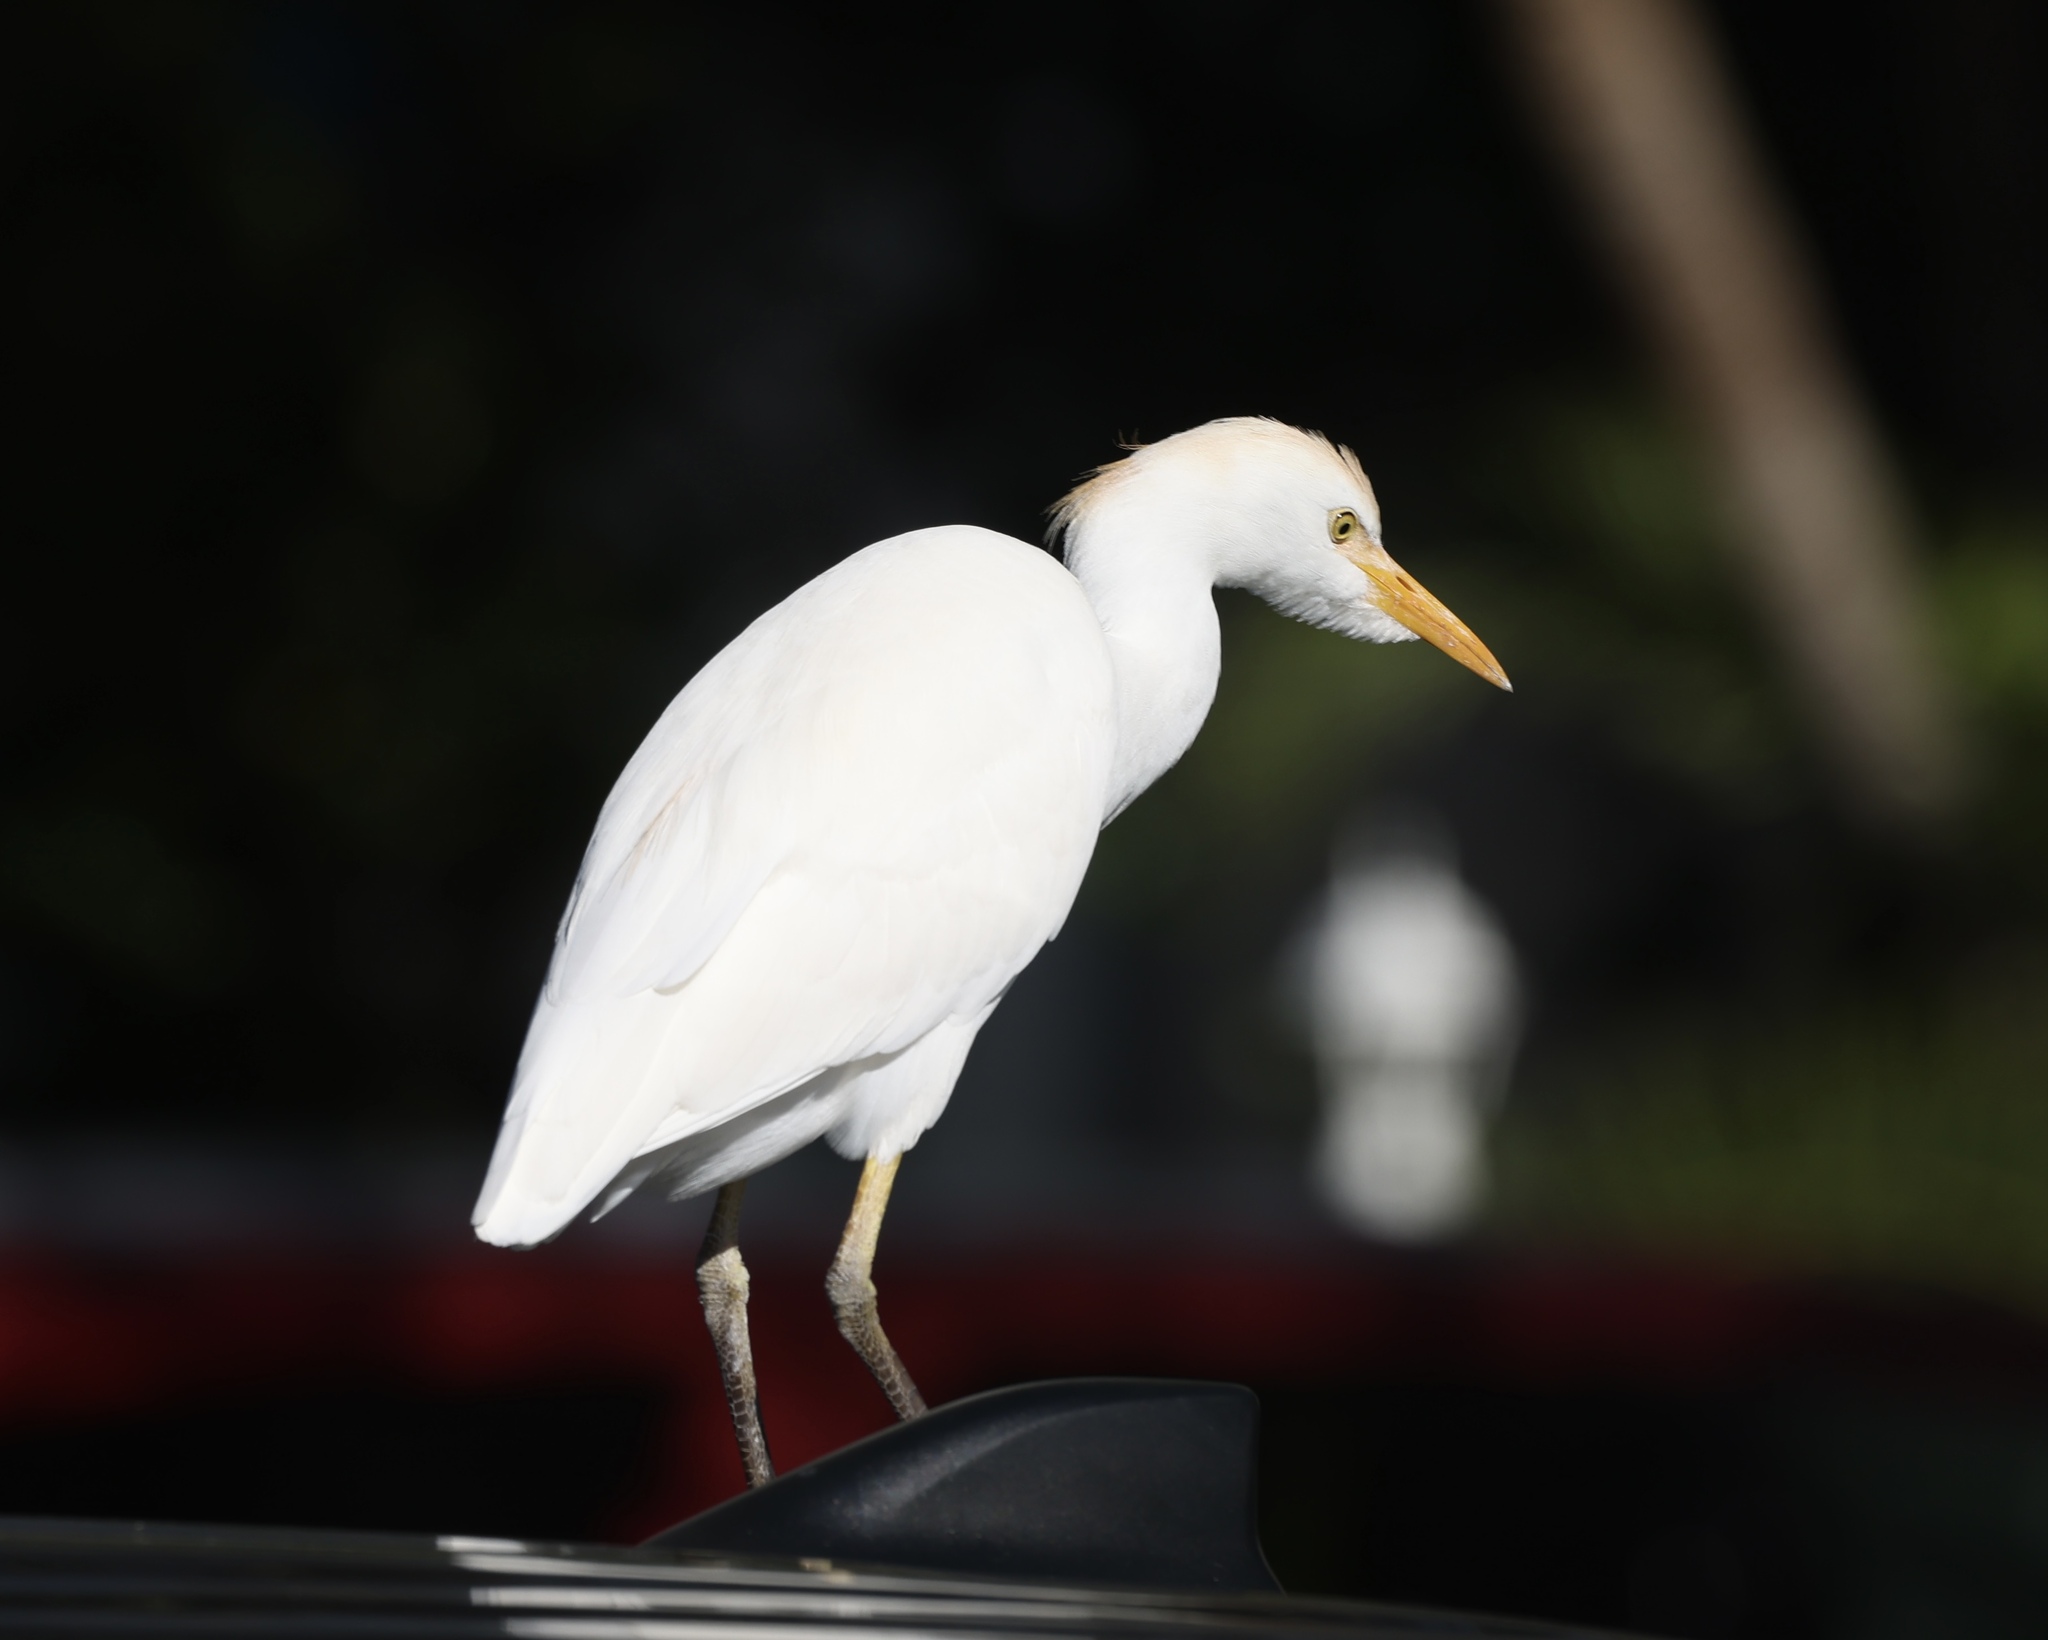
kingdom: Animalia
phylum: Chordata
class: Aves
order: Pelecaniformes
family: Ardeidae
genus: Bubulcus
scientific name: Bubulcus ibis
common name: Cattle egret
